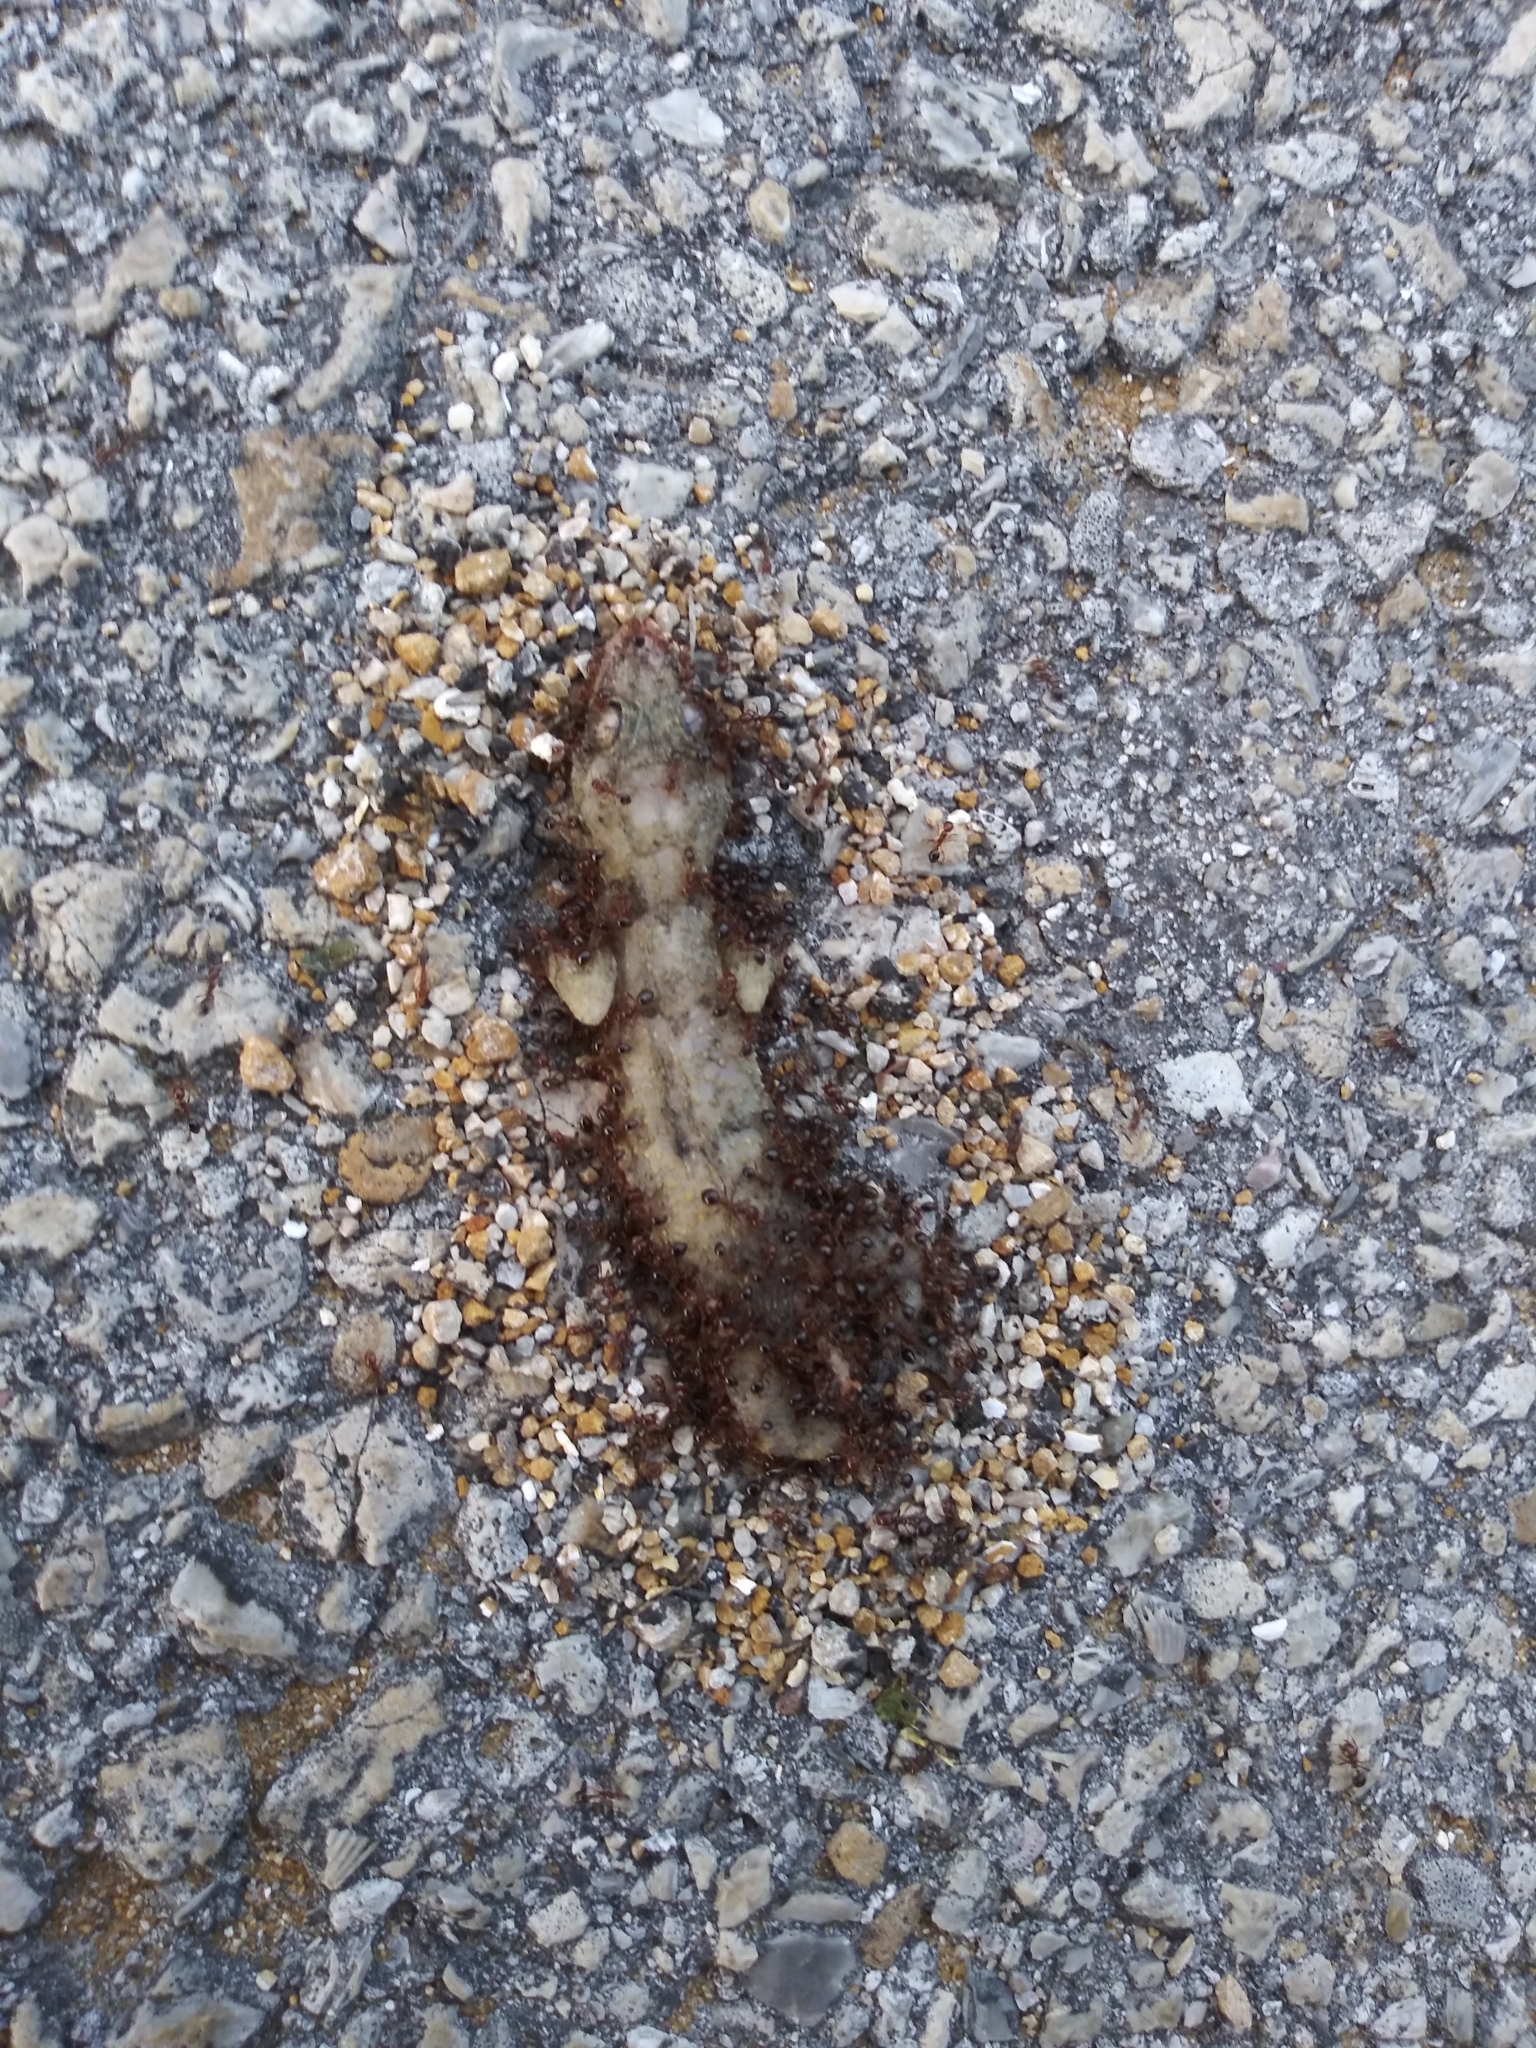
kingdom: Animalia
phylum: Chordata
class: Squamata
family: Gekkonidae
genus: Hemidactylus
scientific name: Hemidactylus mabouia
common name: House gecko
